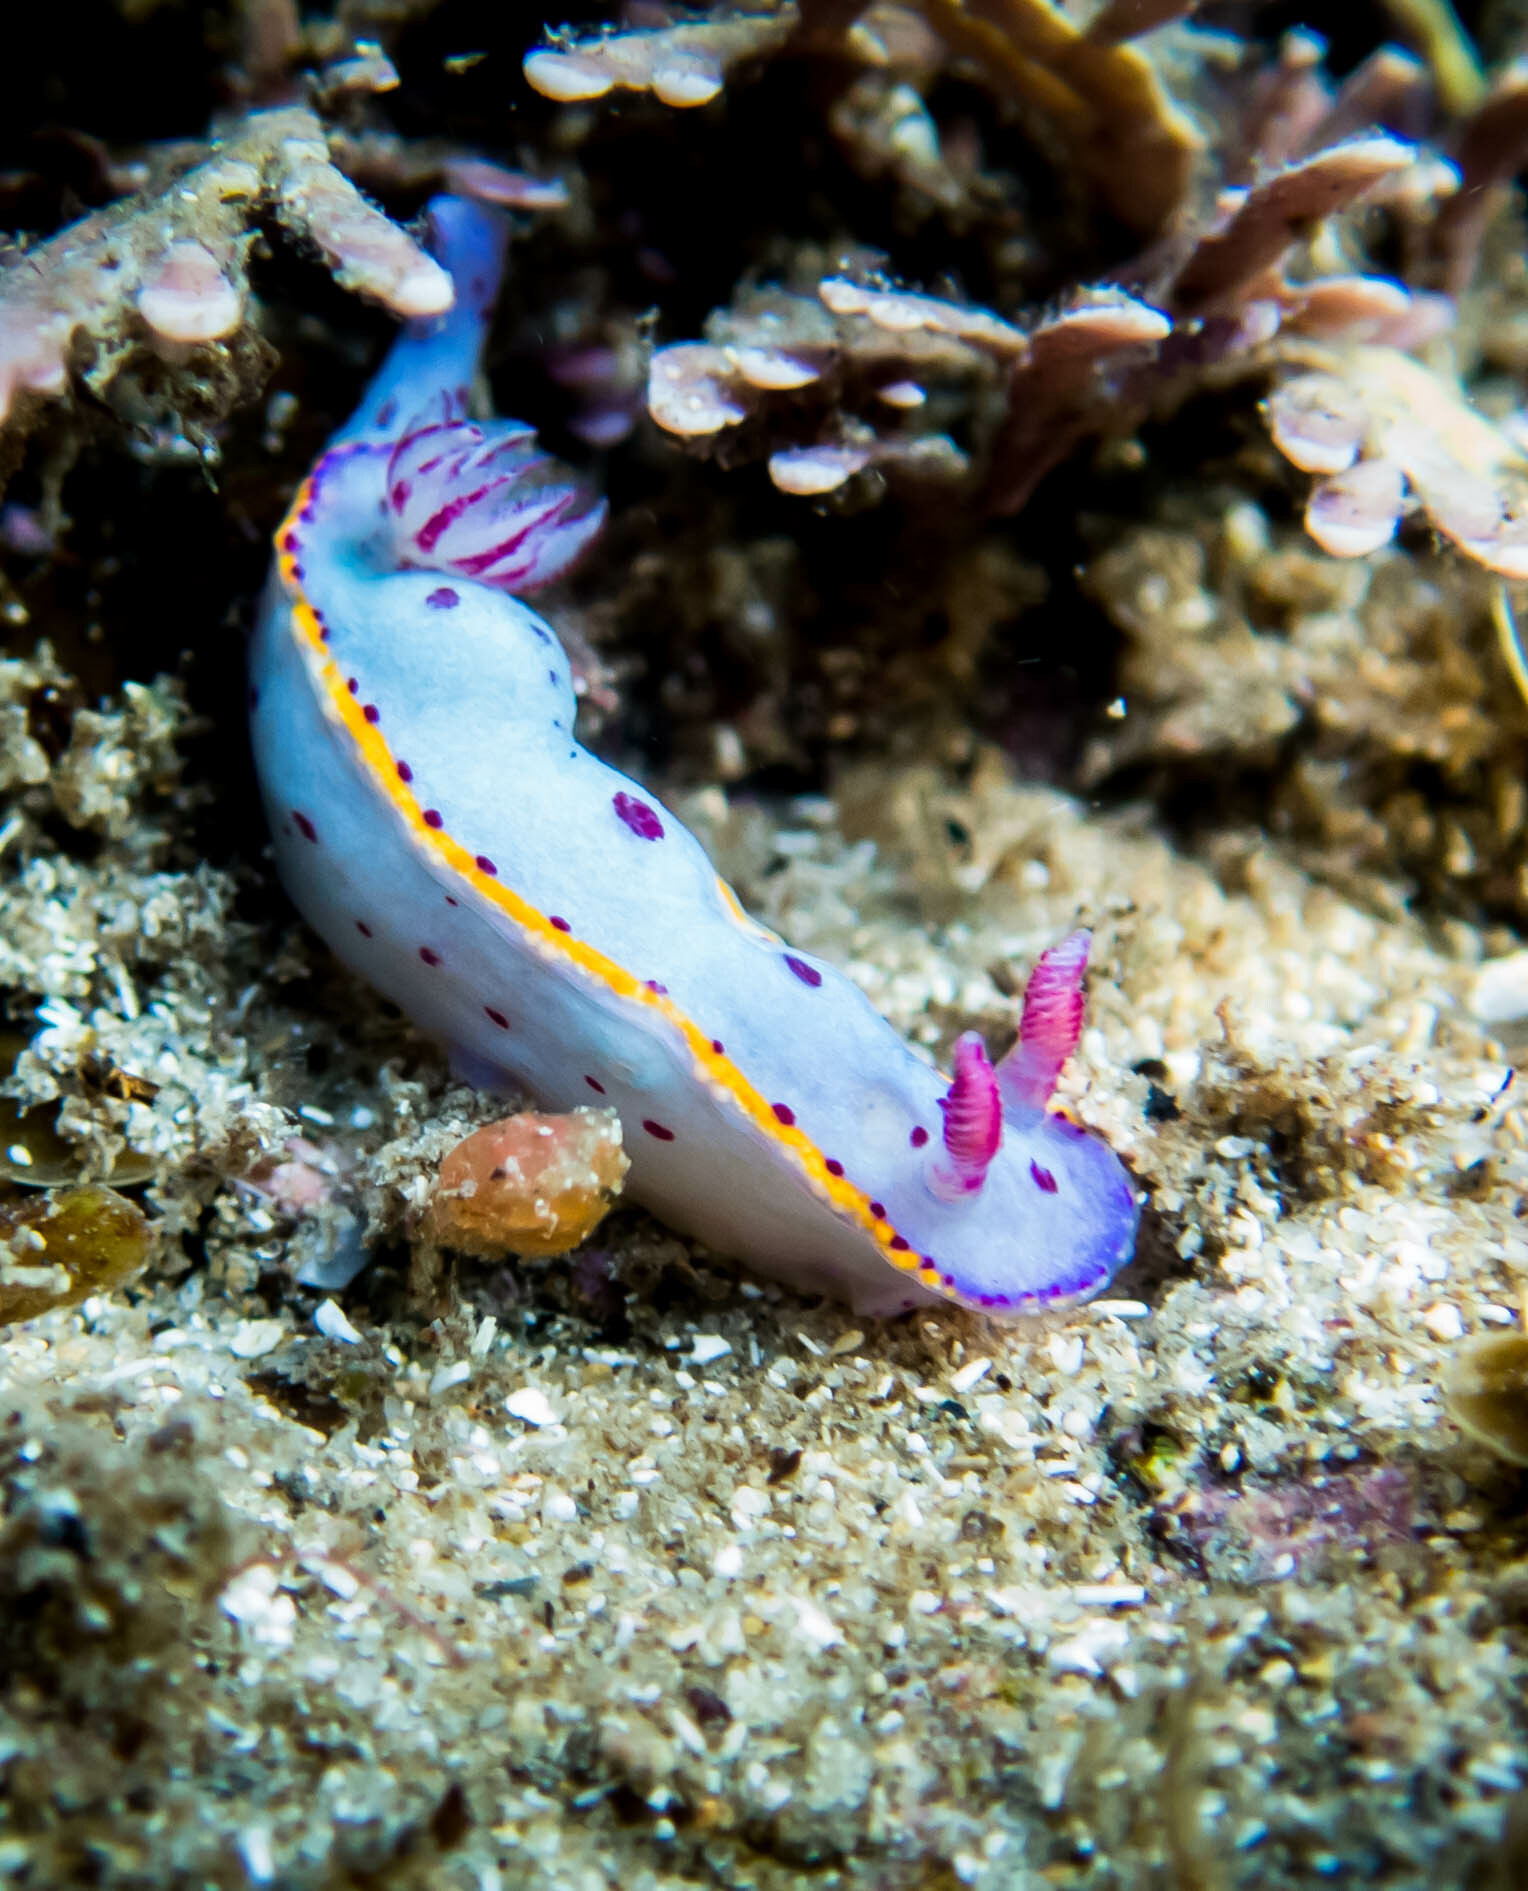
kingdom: Animalia
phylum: Mollusca
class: Gastropoda
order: Nudibranchia
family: Chromodorididae
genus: Hypselodoris
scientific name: Hypselodoris bennetti
